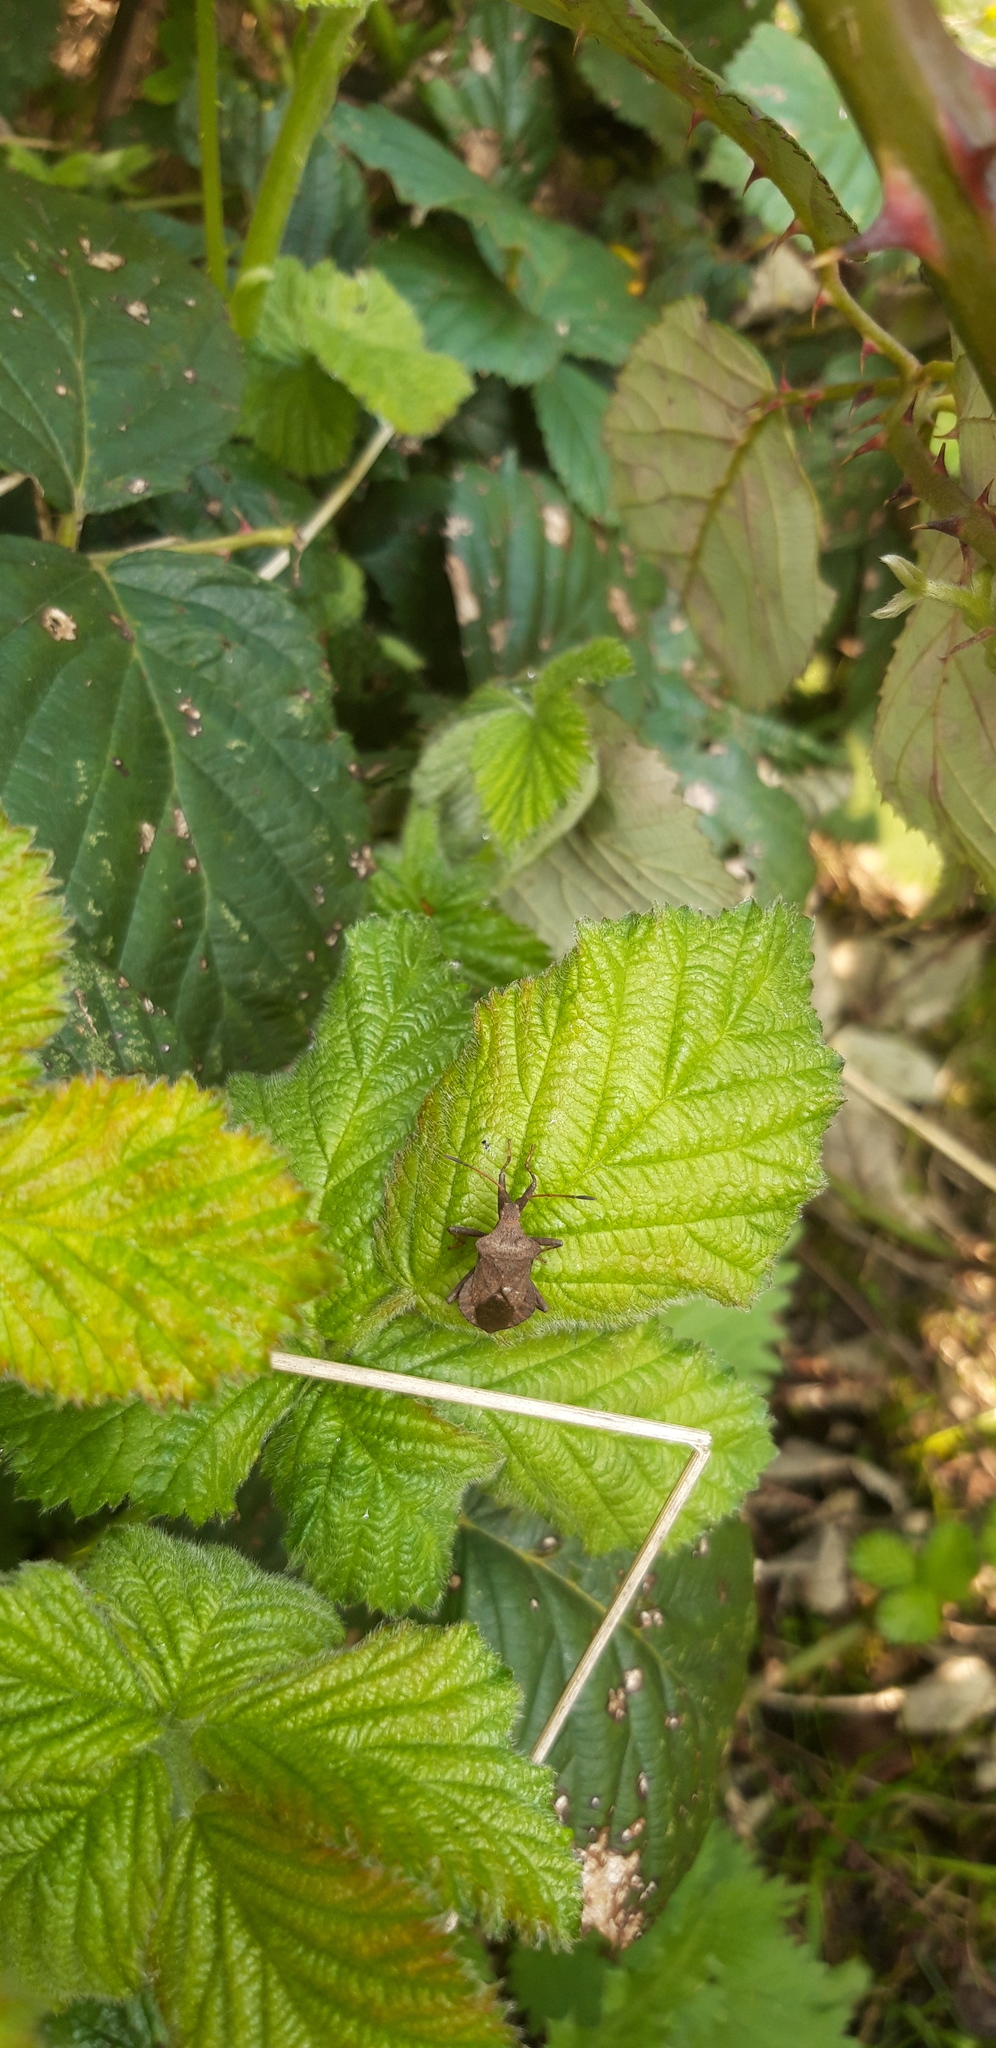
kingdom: Animalia
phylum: Arthropoda
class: Insecta
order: Hemiptera
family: Coreidae
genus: Coreus
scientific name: Coreus marginatus
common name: Dock bug
